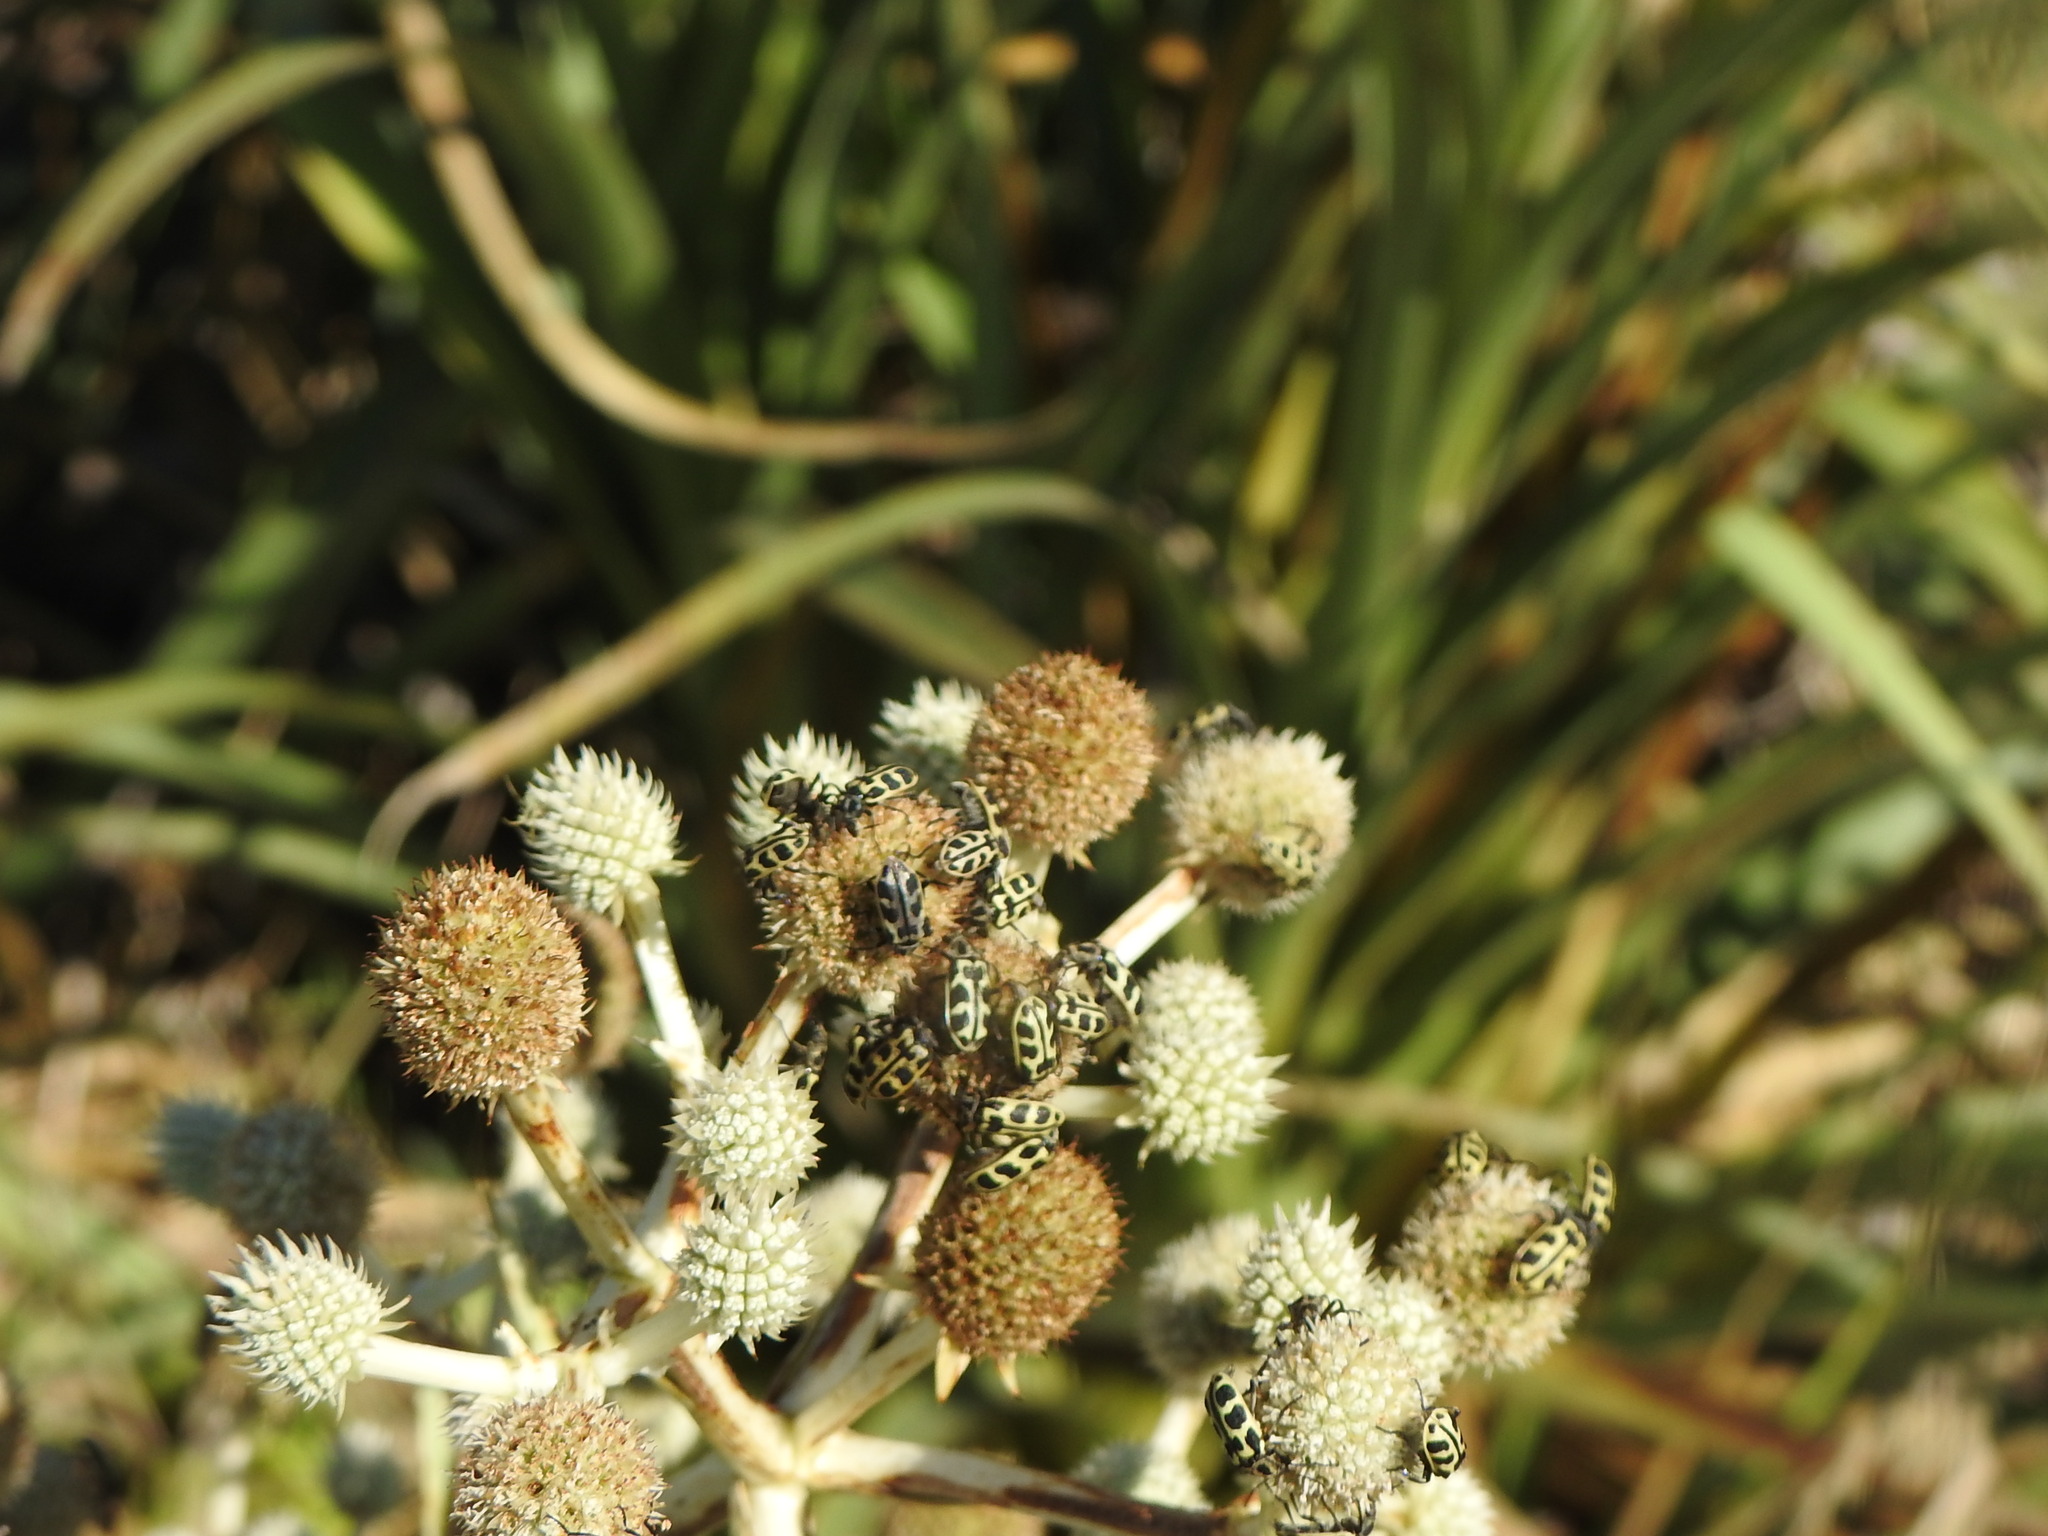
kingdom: Animalia
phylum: Arthropoda
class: Insecta
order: Coleoptera
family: Melyridae
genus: Astylus
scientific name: Astylus atromaculatus
